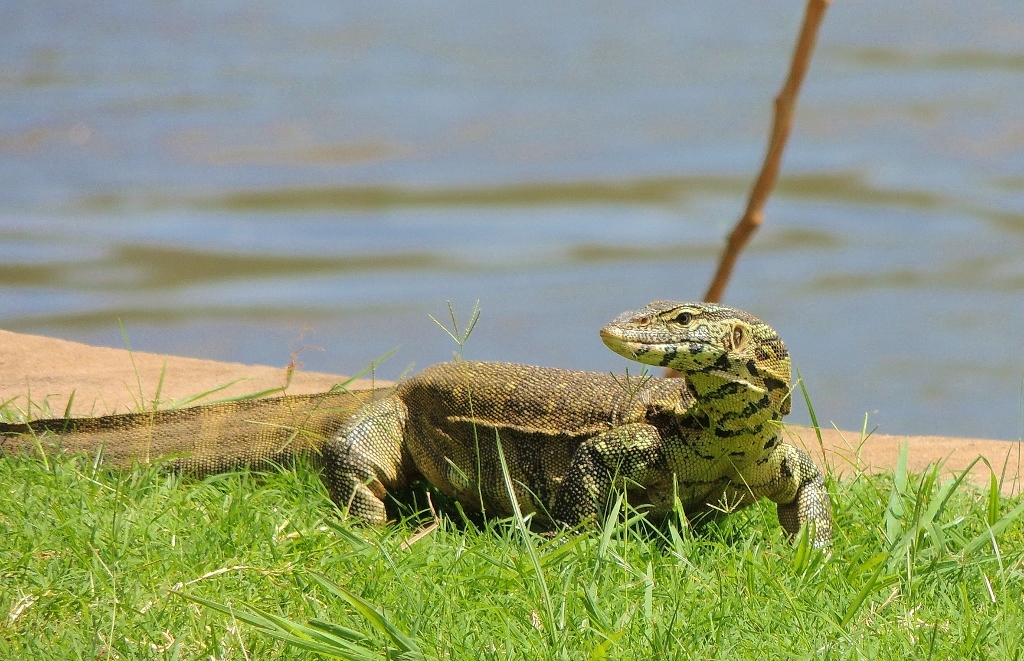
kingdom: Animalia
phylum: Chordata
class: Squamata
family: Varanidae
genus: Varanus
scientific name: Varanus niloticus
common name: Nile monitor
